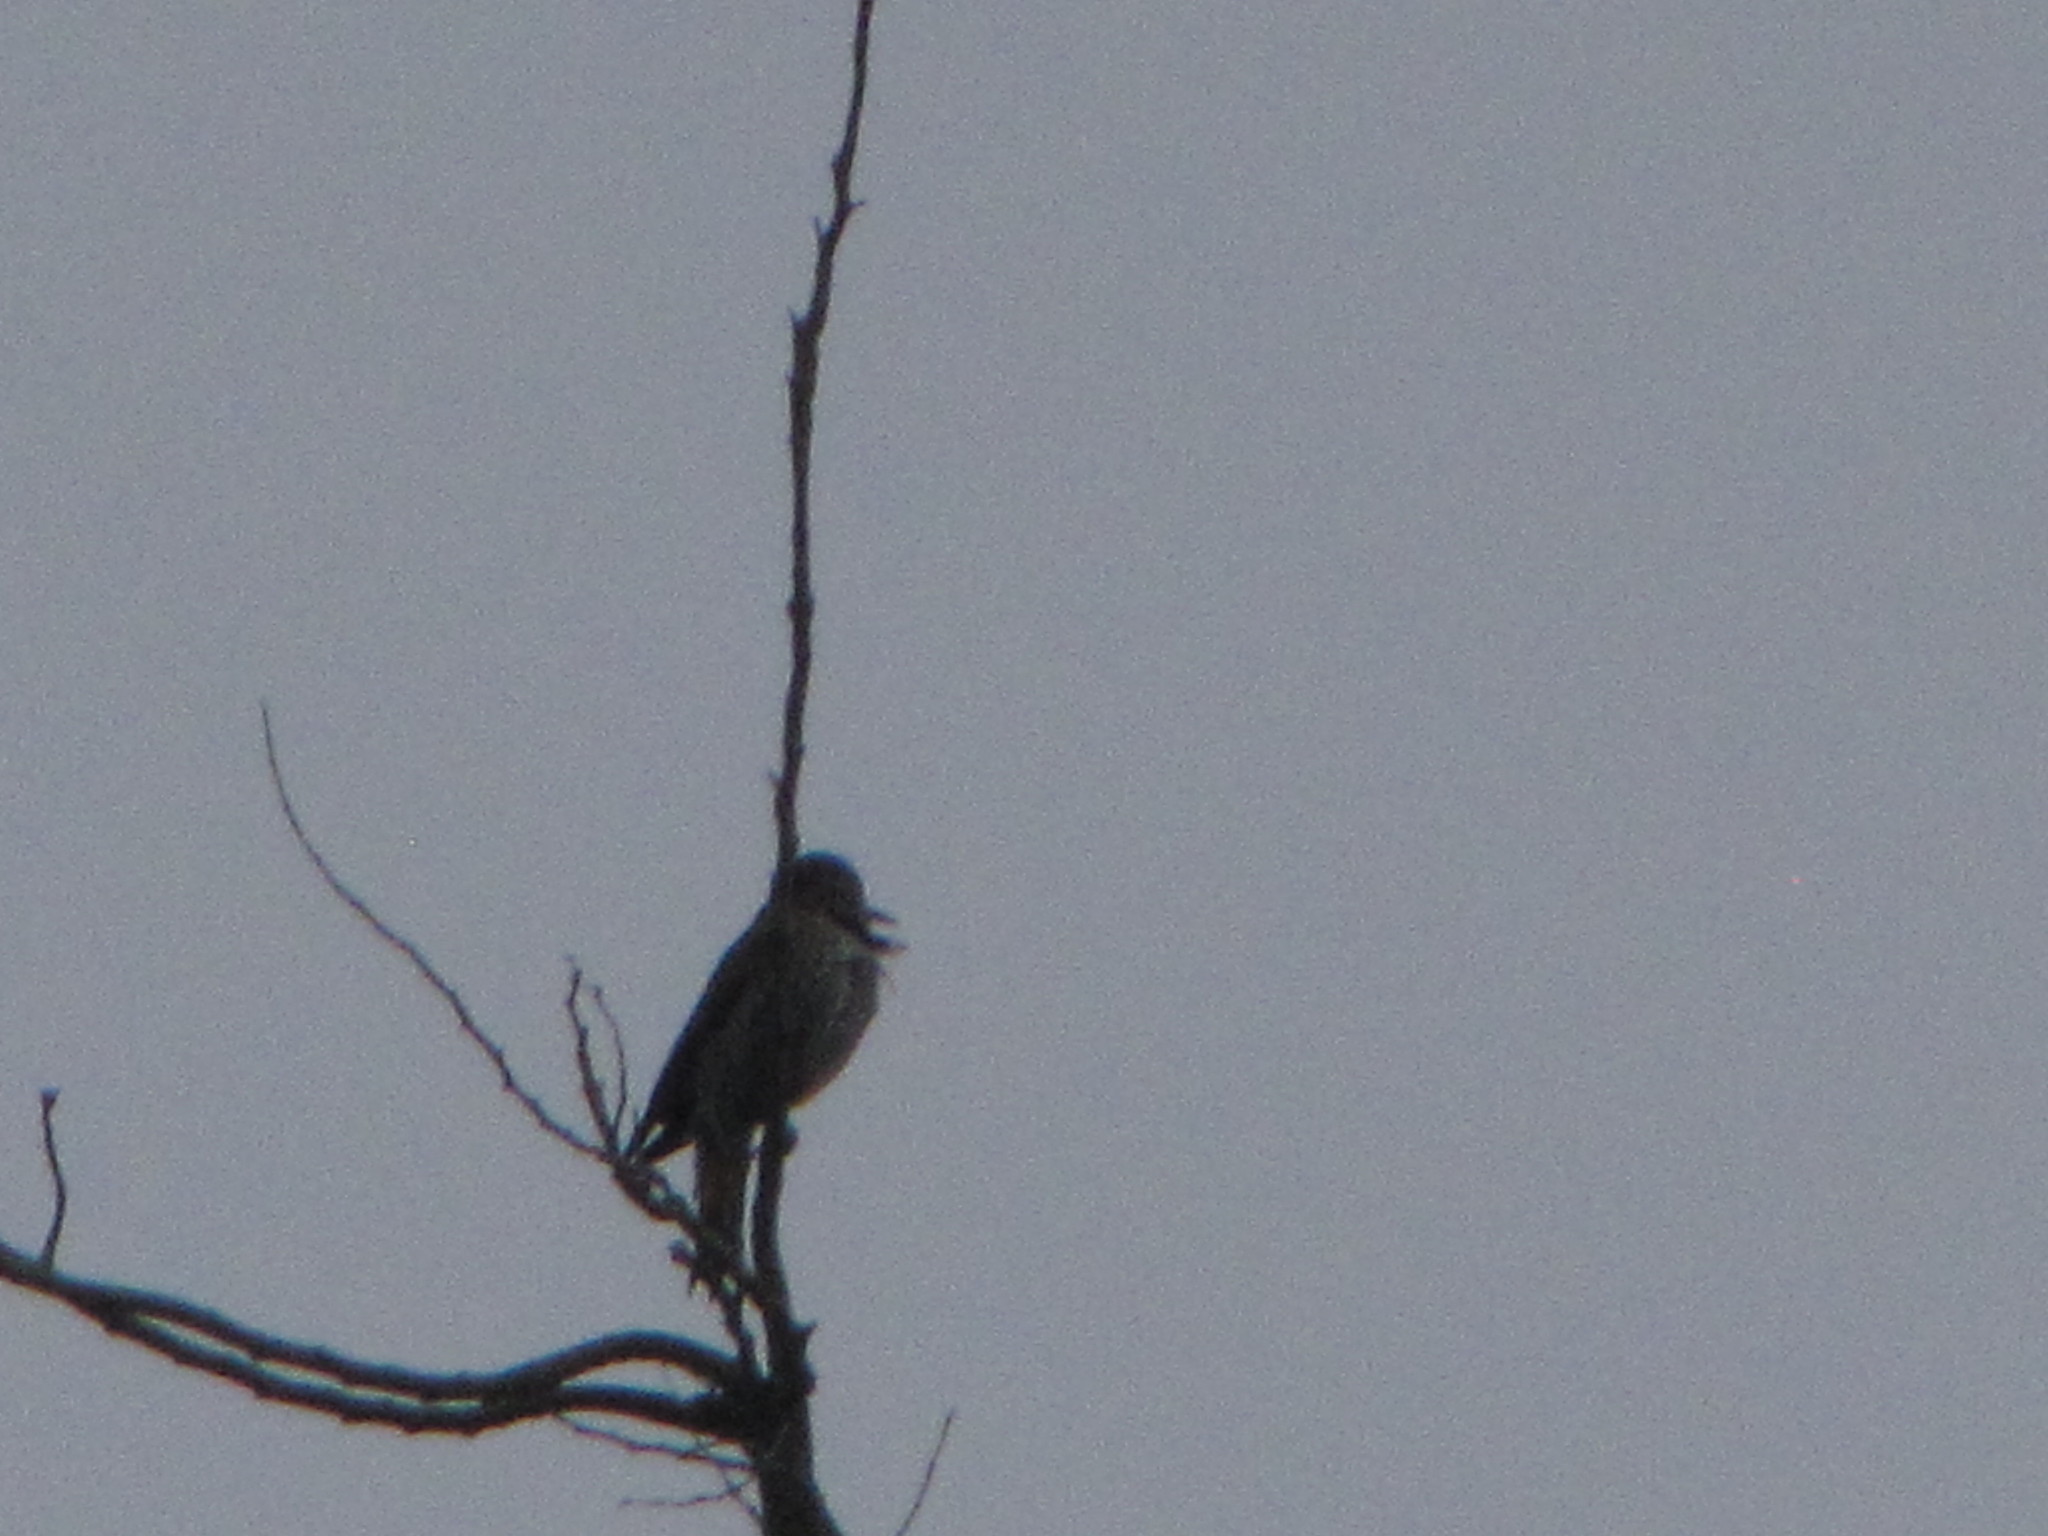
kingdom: Animalia
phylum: Chordata
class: Aves
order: Piciformes
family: Picidae
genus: Colaptes
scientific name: Colaptes auratus
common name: Northern flicker
